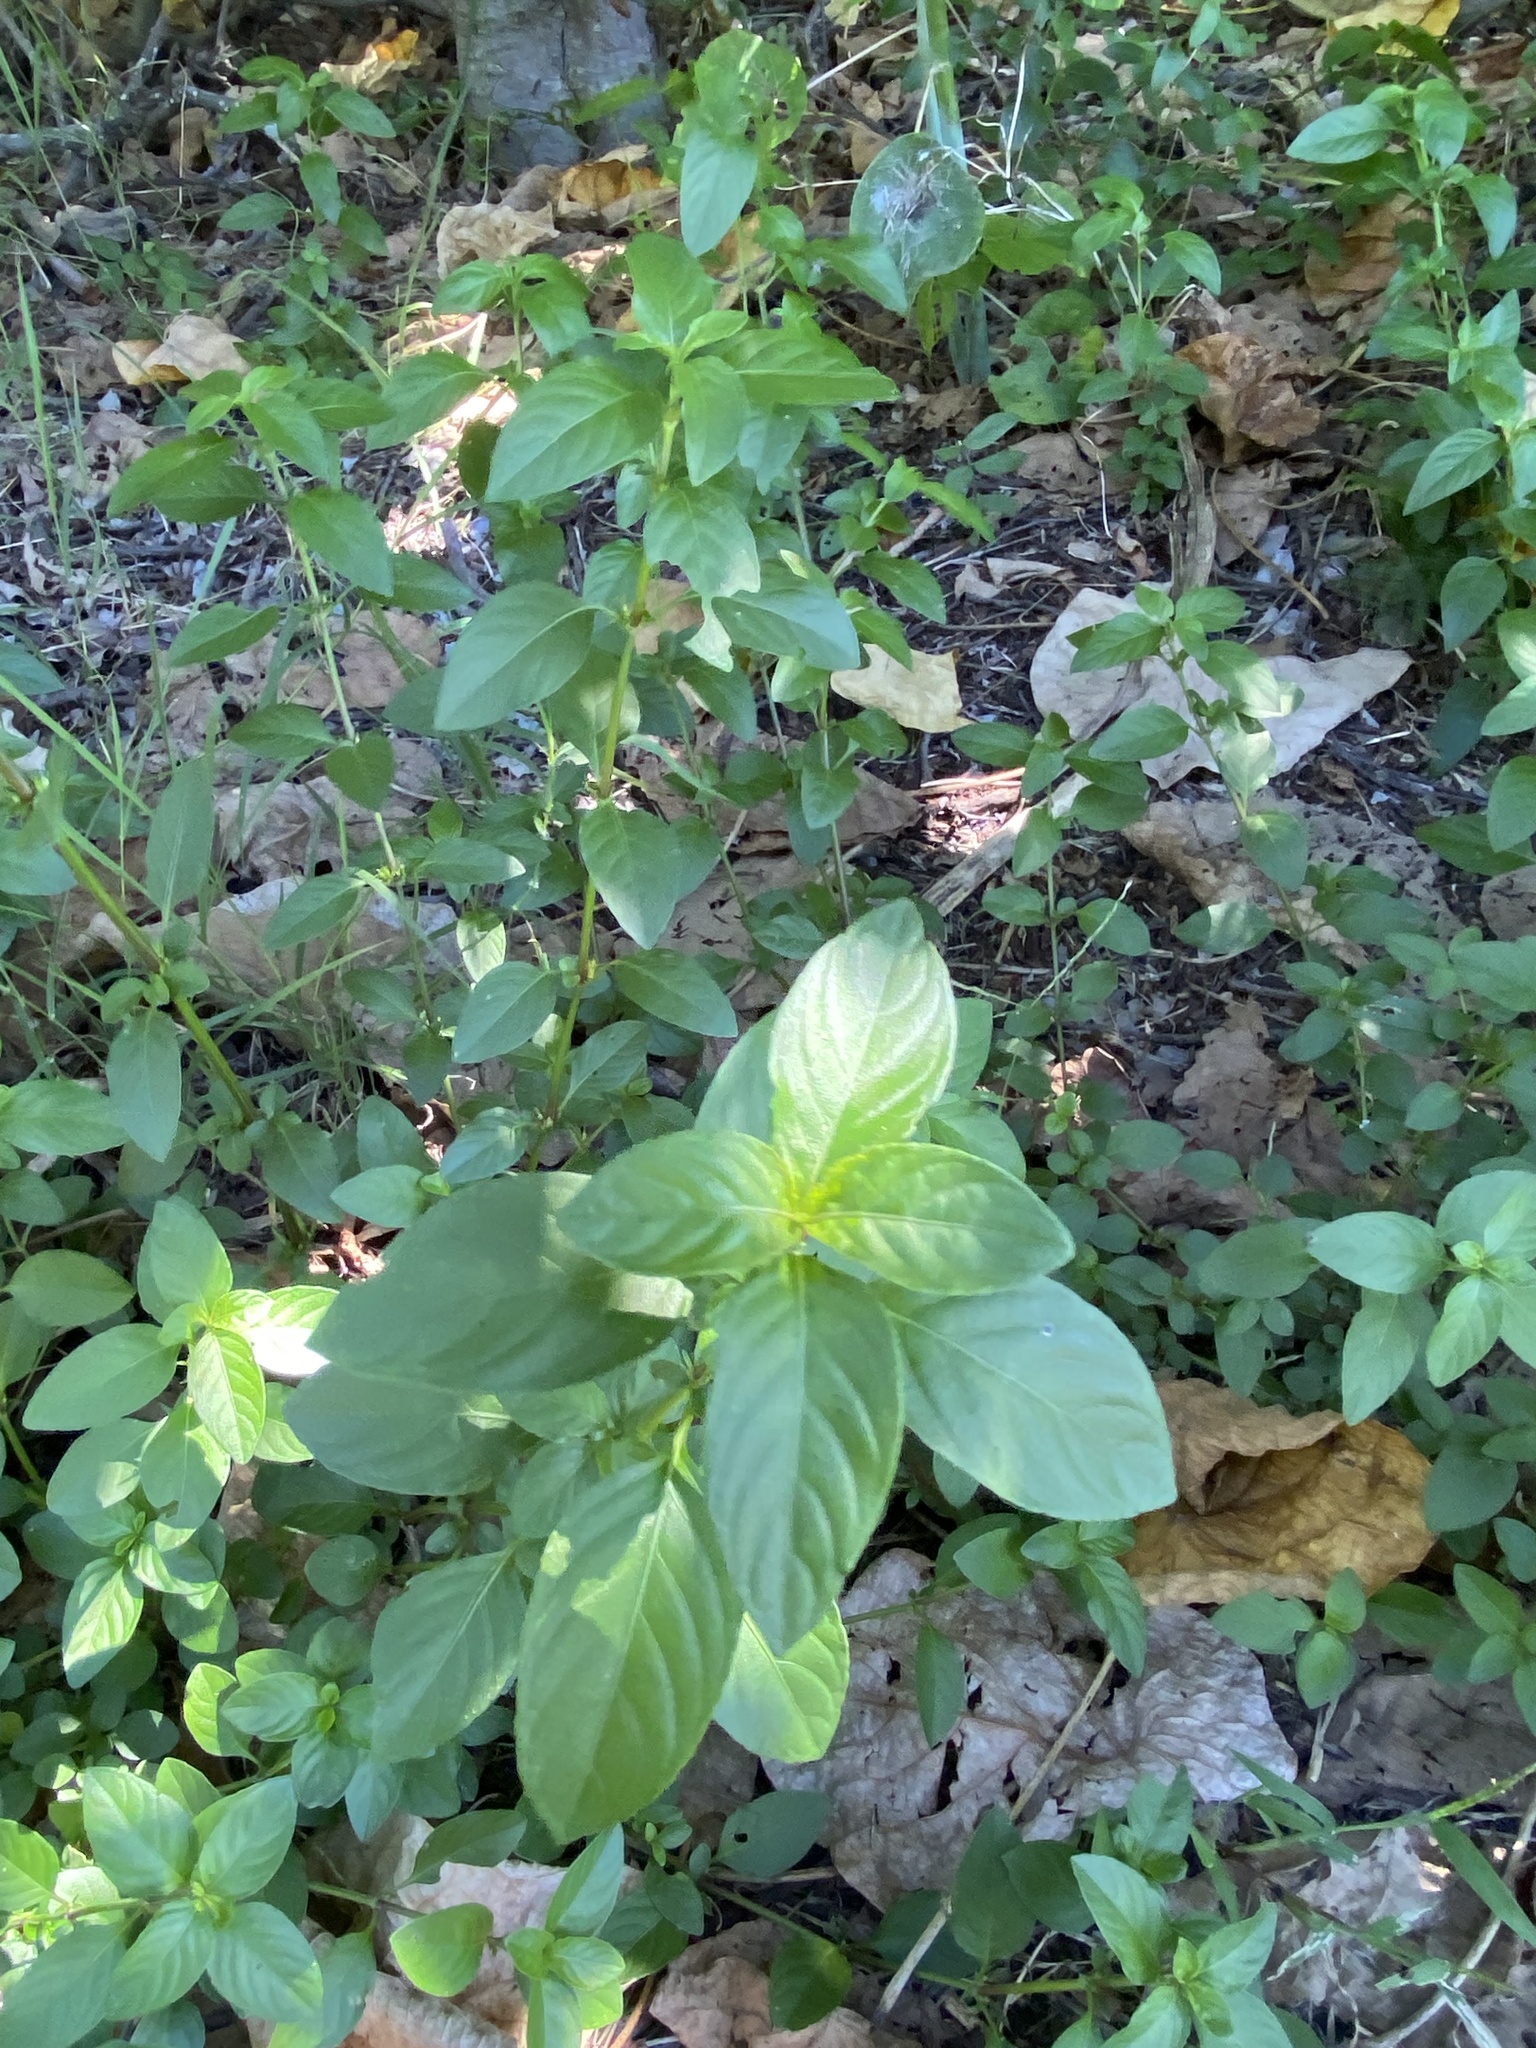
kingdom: Plantae
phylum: Tracheophyta
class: Magnoliopsida
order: Lamiales
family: Acanthaceae
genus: Hygrophila
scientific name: Hygrophila erecta
